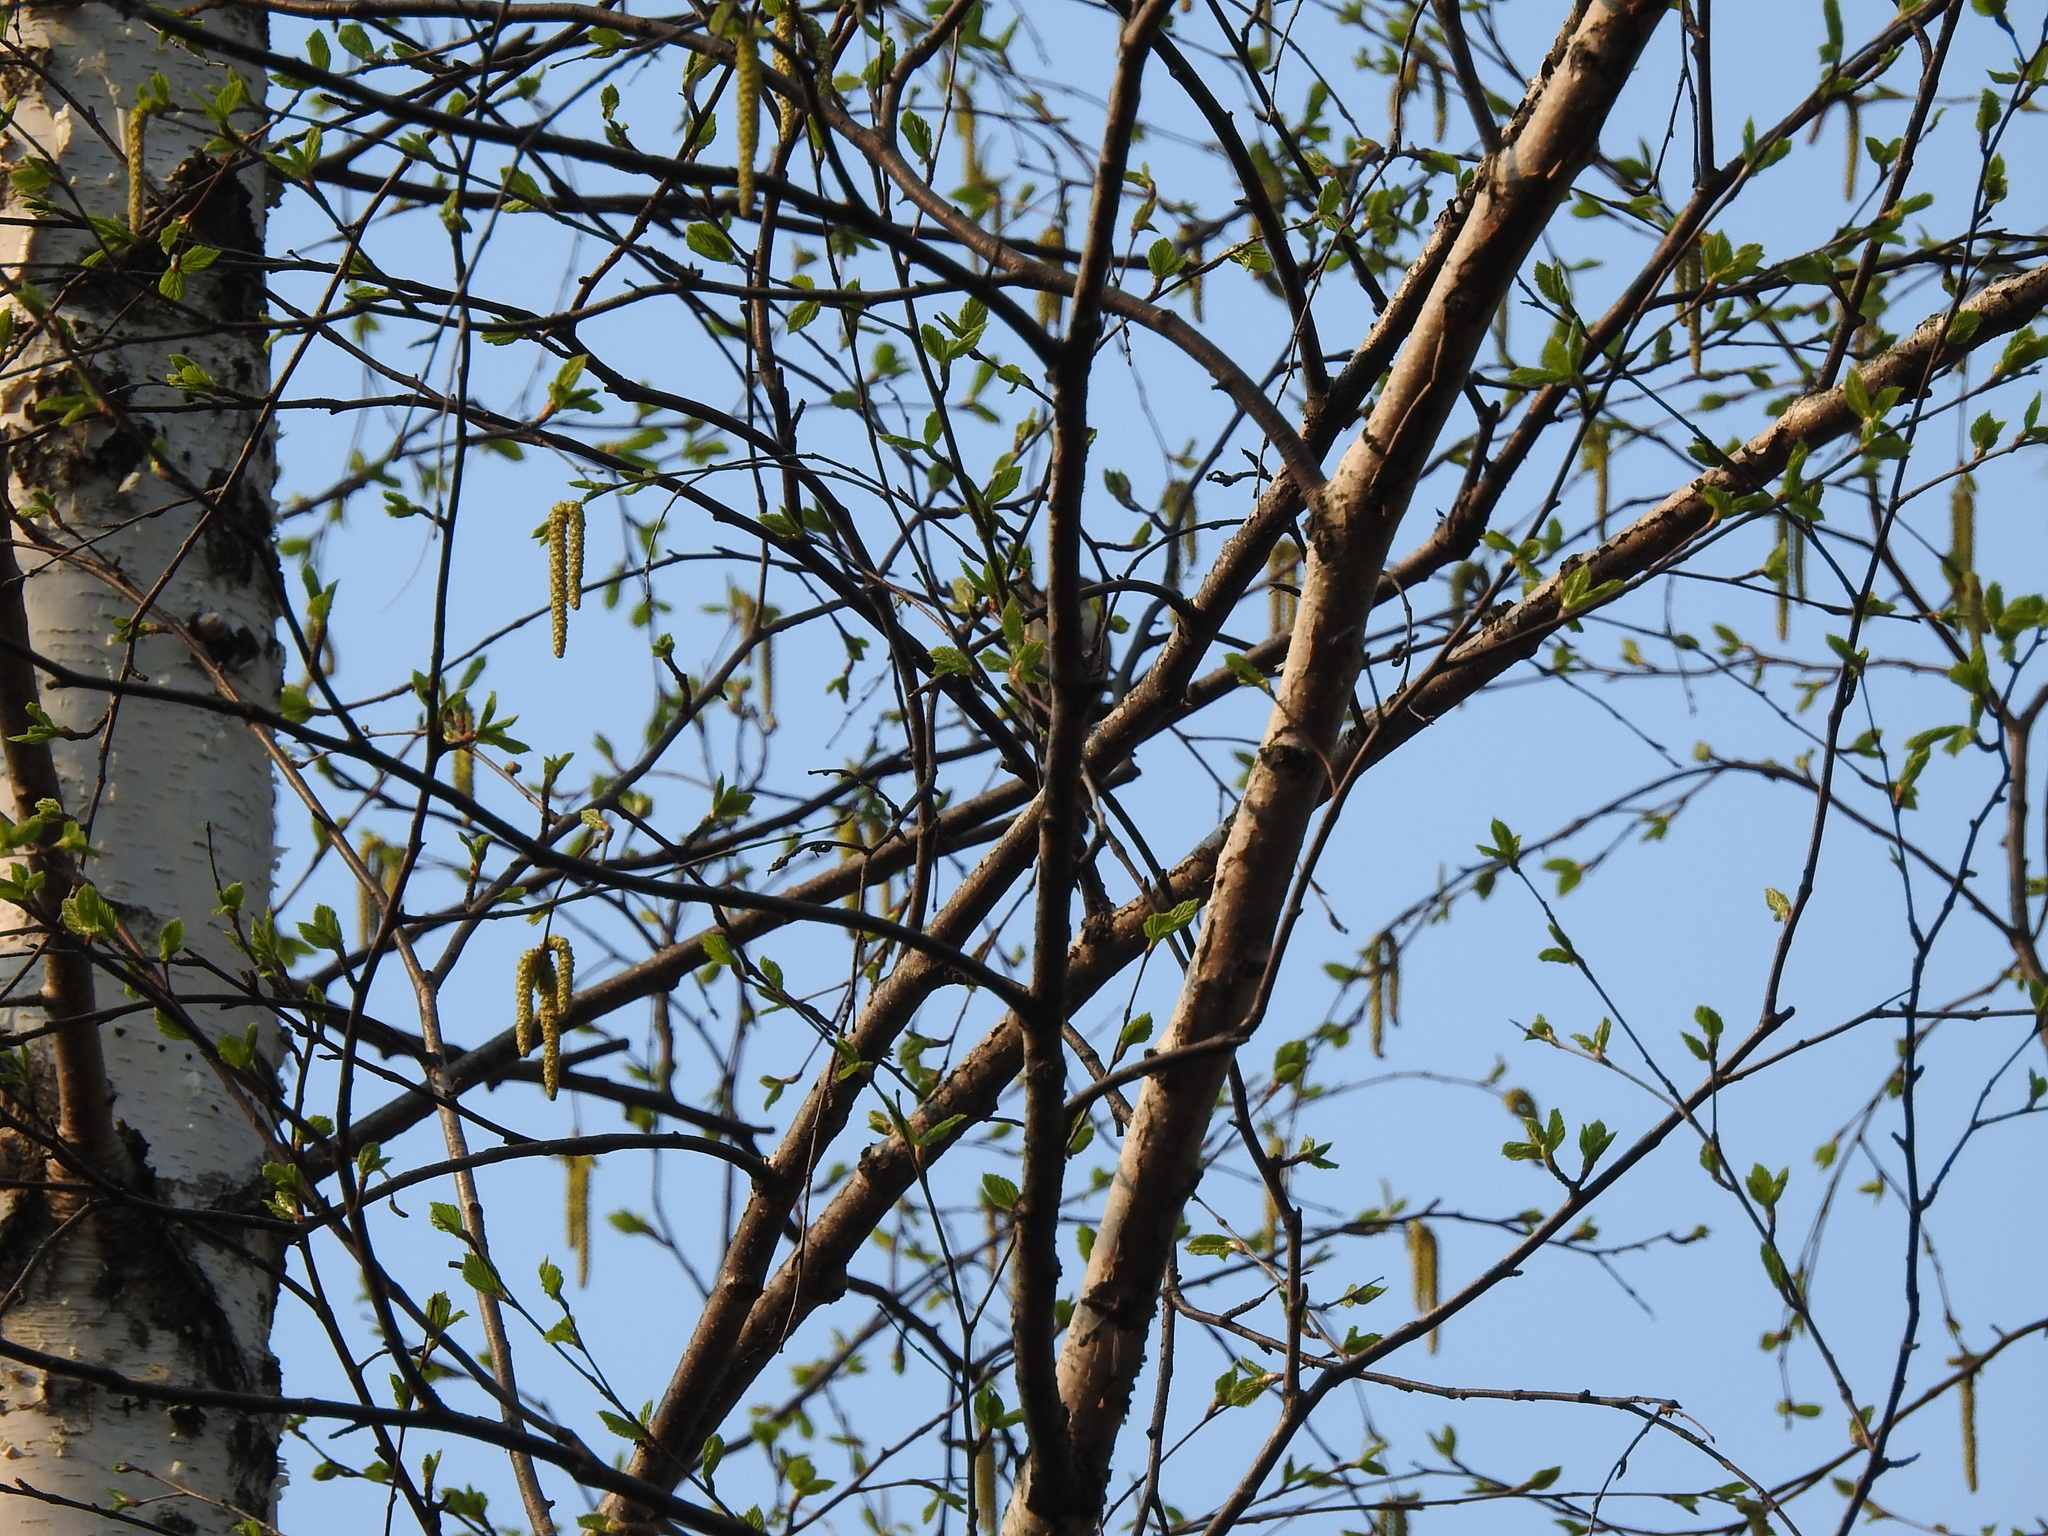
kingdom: Plantae
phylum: Tracheophyta
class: Magnoliopsida
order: Fagales
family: Betulaceae
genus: Betula
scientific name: Betula pendula
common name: Silver birch
